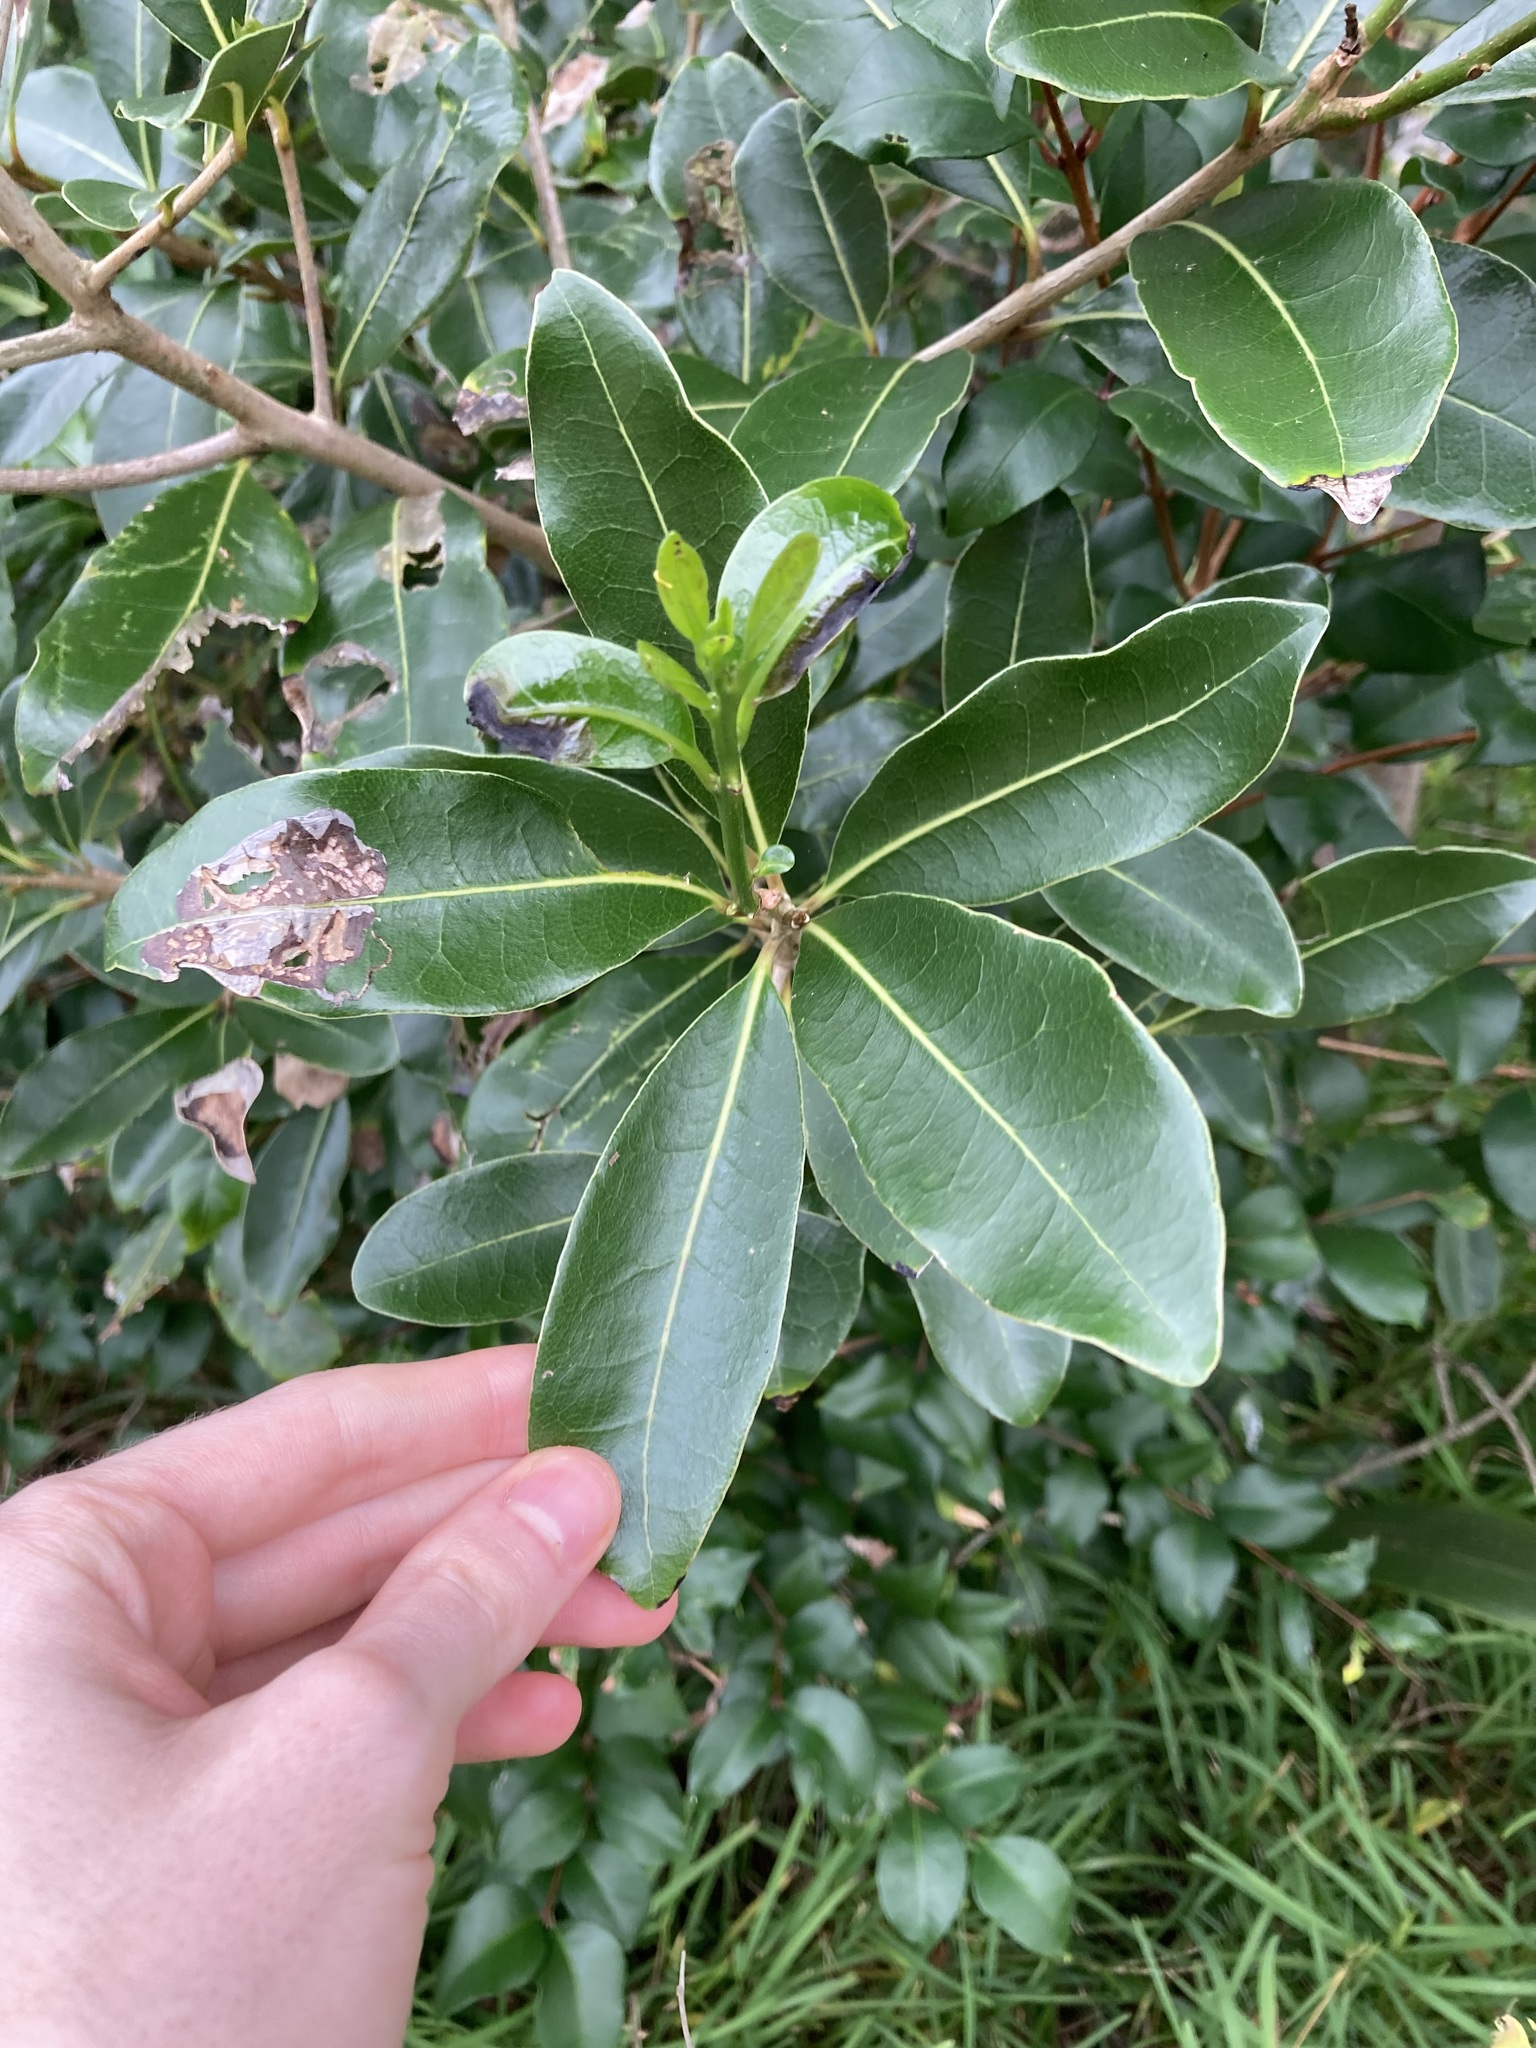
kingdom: Plantae
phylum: Tracheophyta
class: Magnoliopsida
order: Ericales
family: Primulaceae
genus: Myrsine
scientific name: Myrsine variabilis
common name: Brush muttonwood
